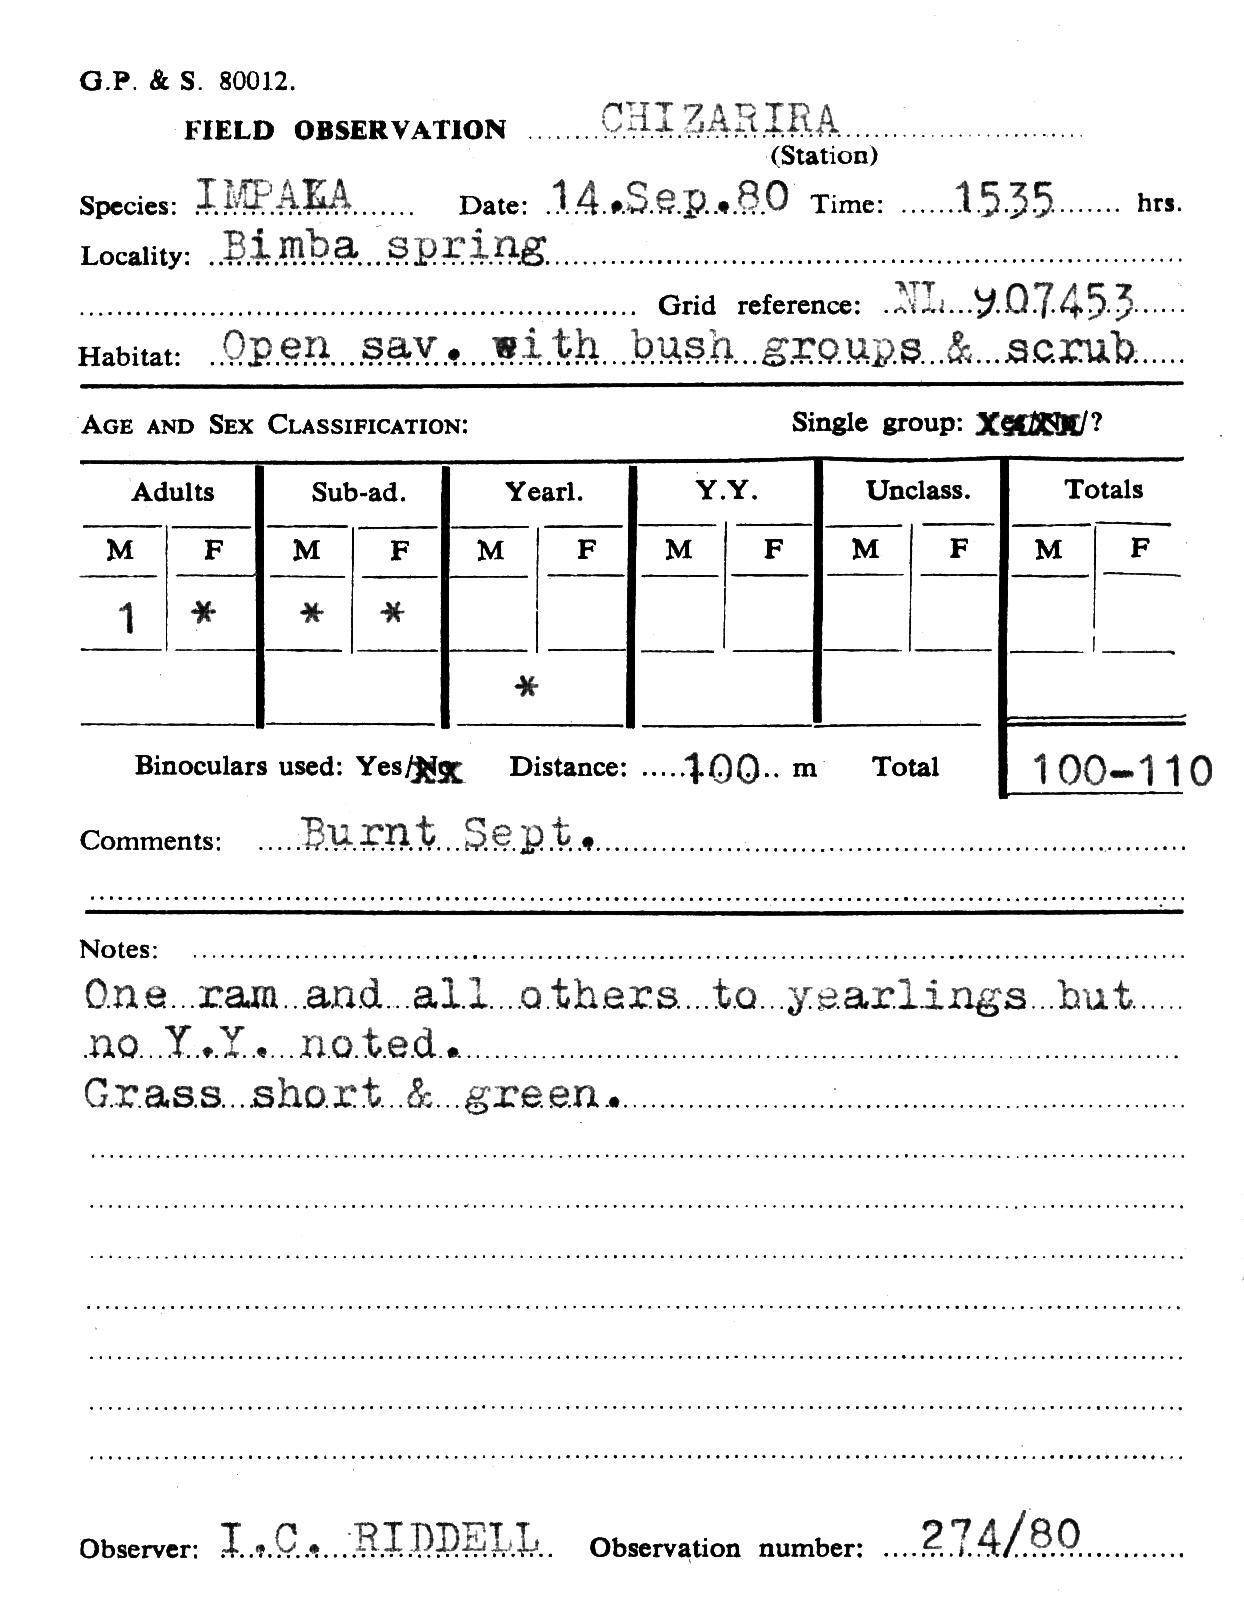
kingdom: Animalia
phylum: Chordata
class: Mammalia
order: Artiodactyla
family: Bovidae
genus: Aepyceros
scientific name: Aepyceros melampus
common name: Impala
